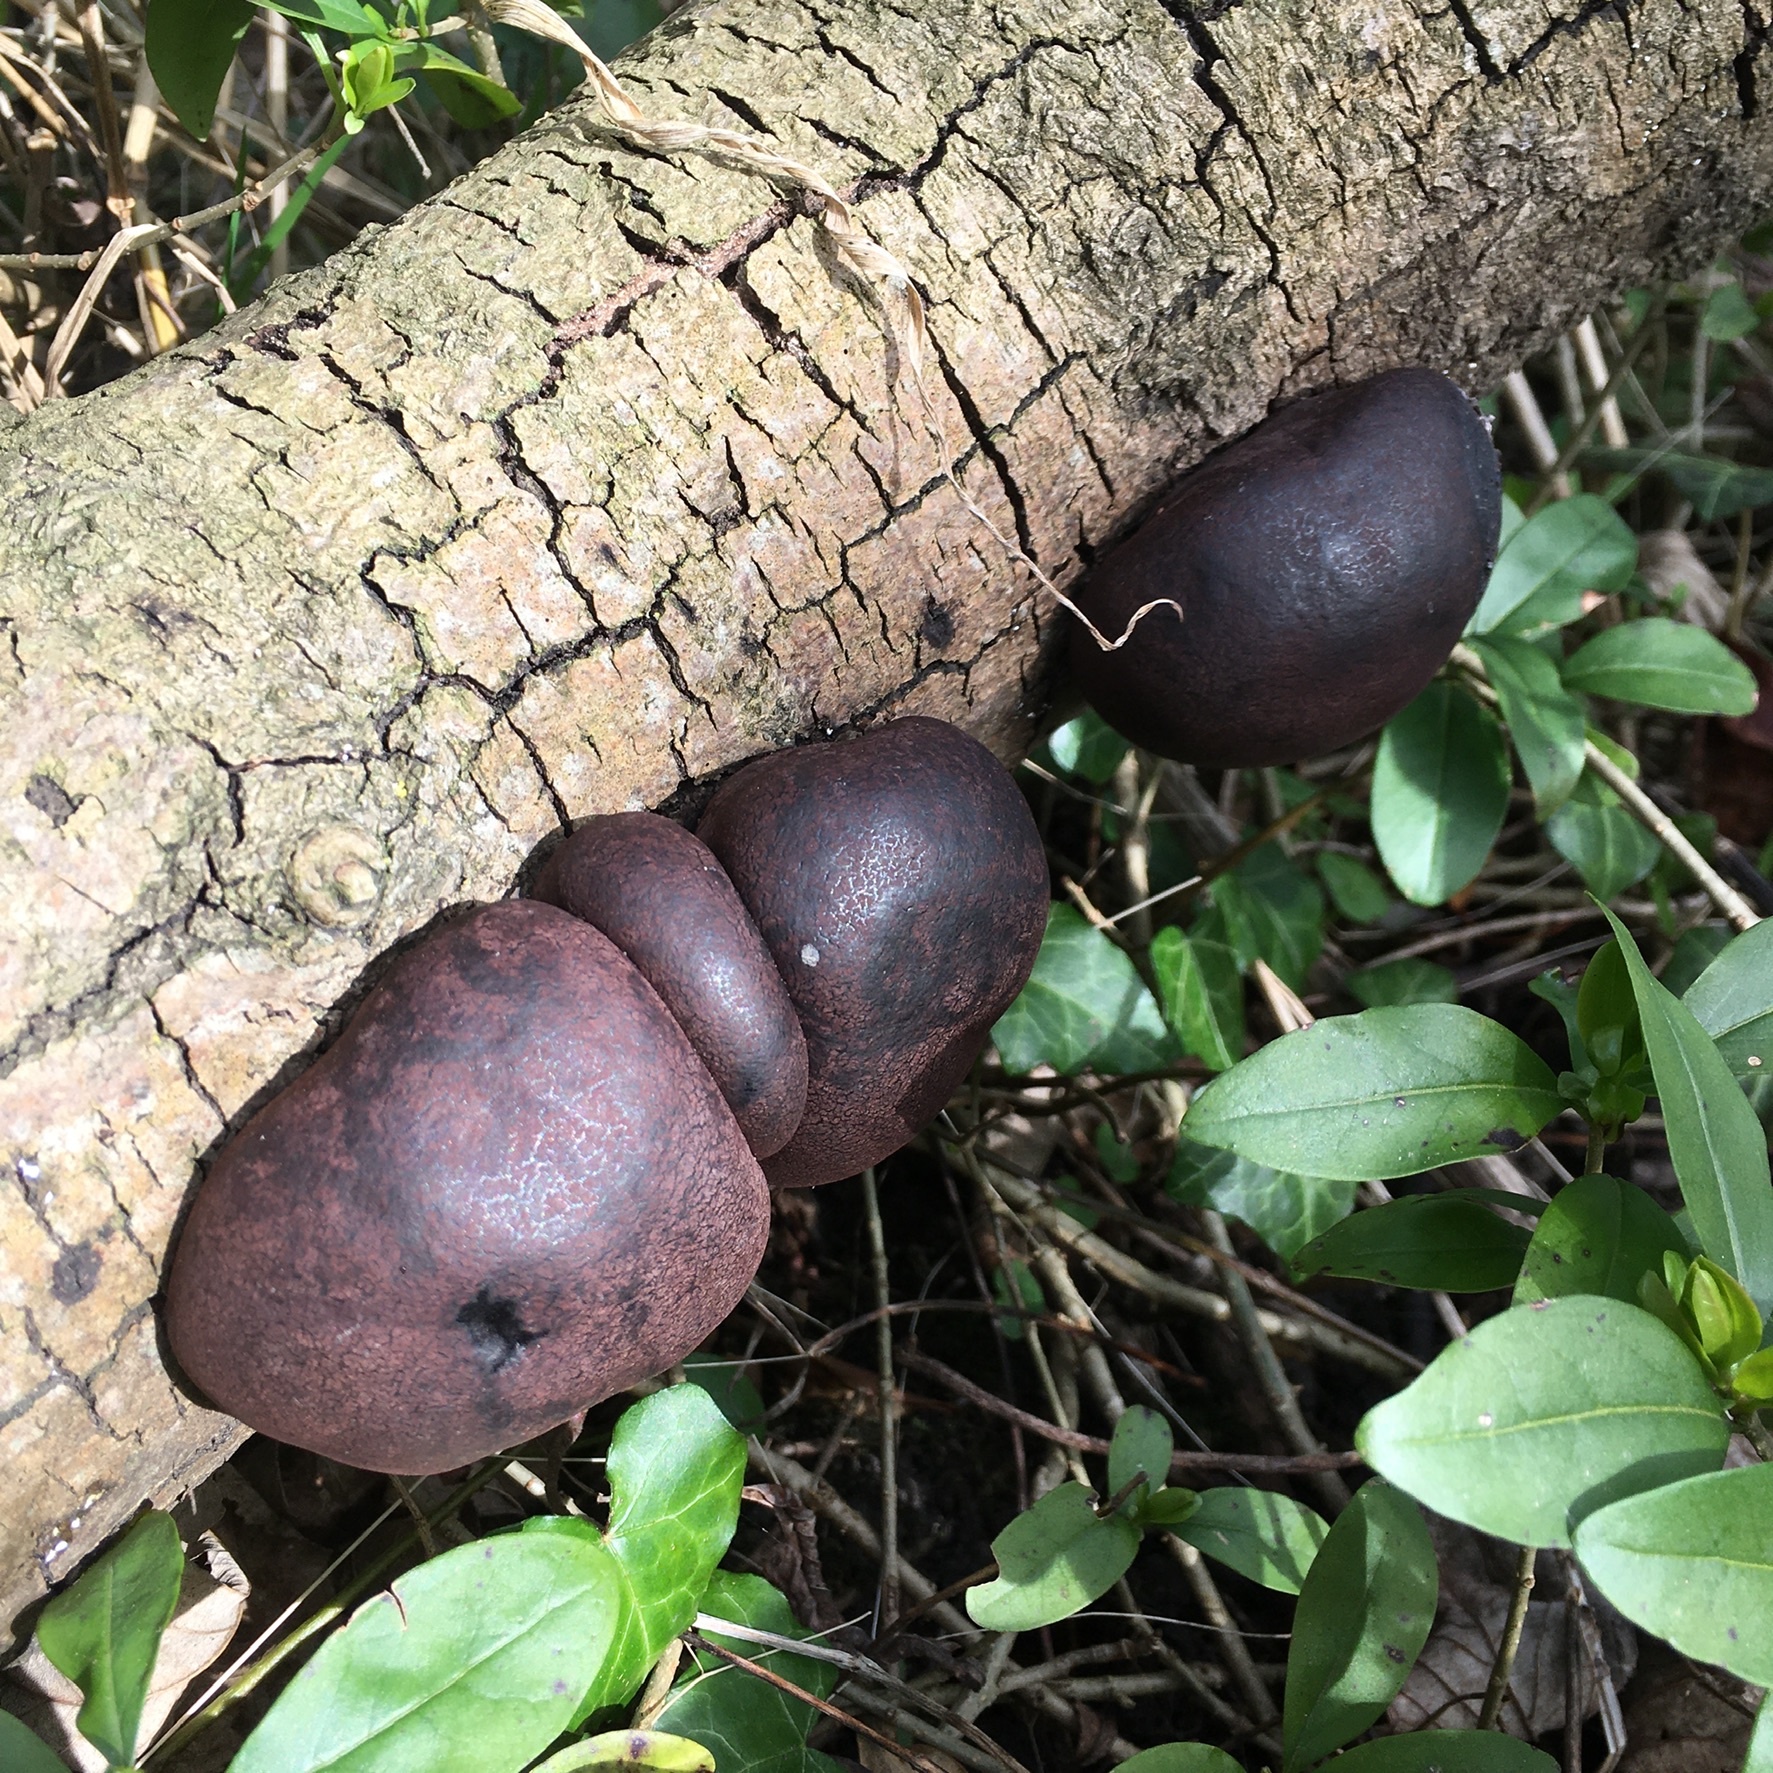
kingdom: Fungi
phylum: Ascomycota
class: Sordariomycetes
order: Xylariales
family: Hypoxylaceae
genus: Daldinia
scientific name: Daldinia concentrica
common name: Cramp balls
